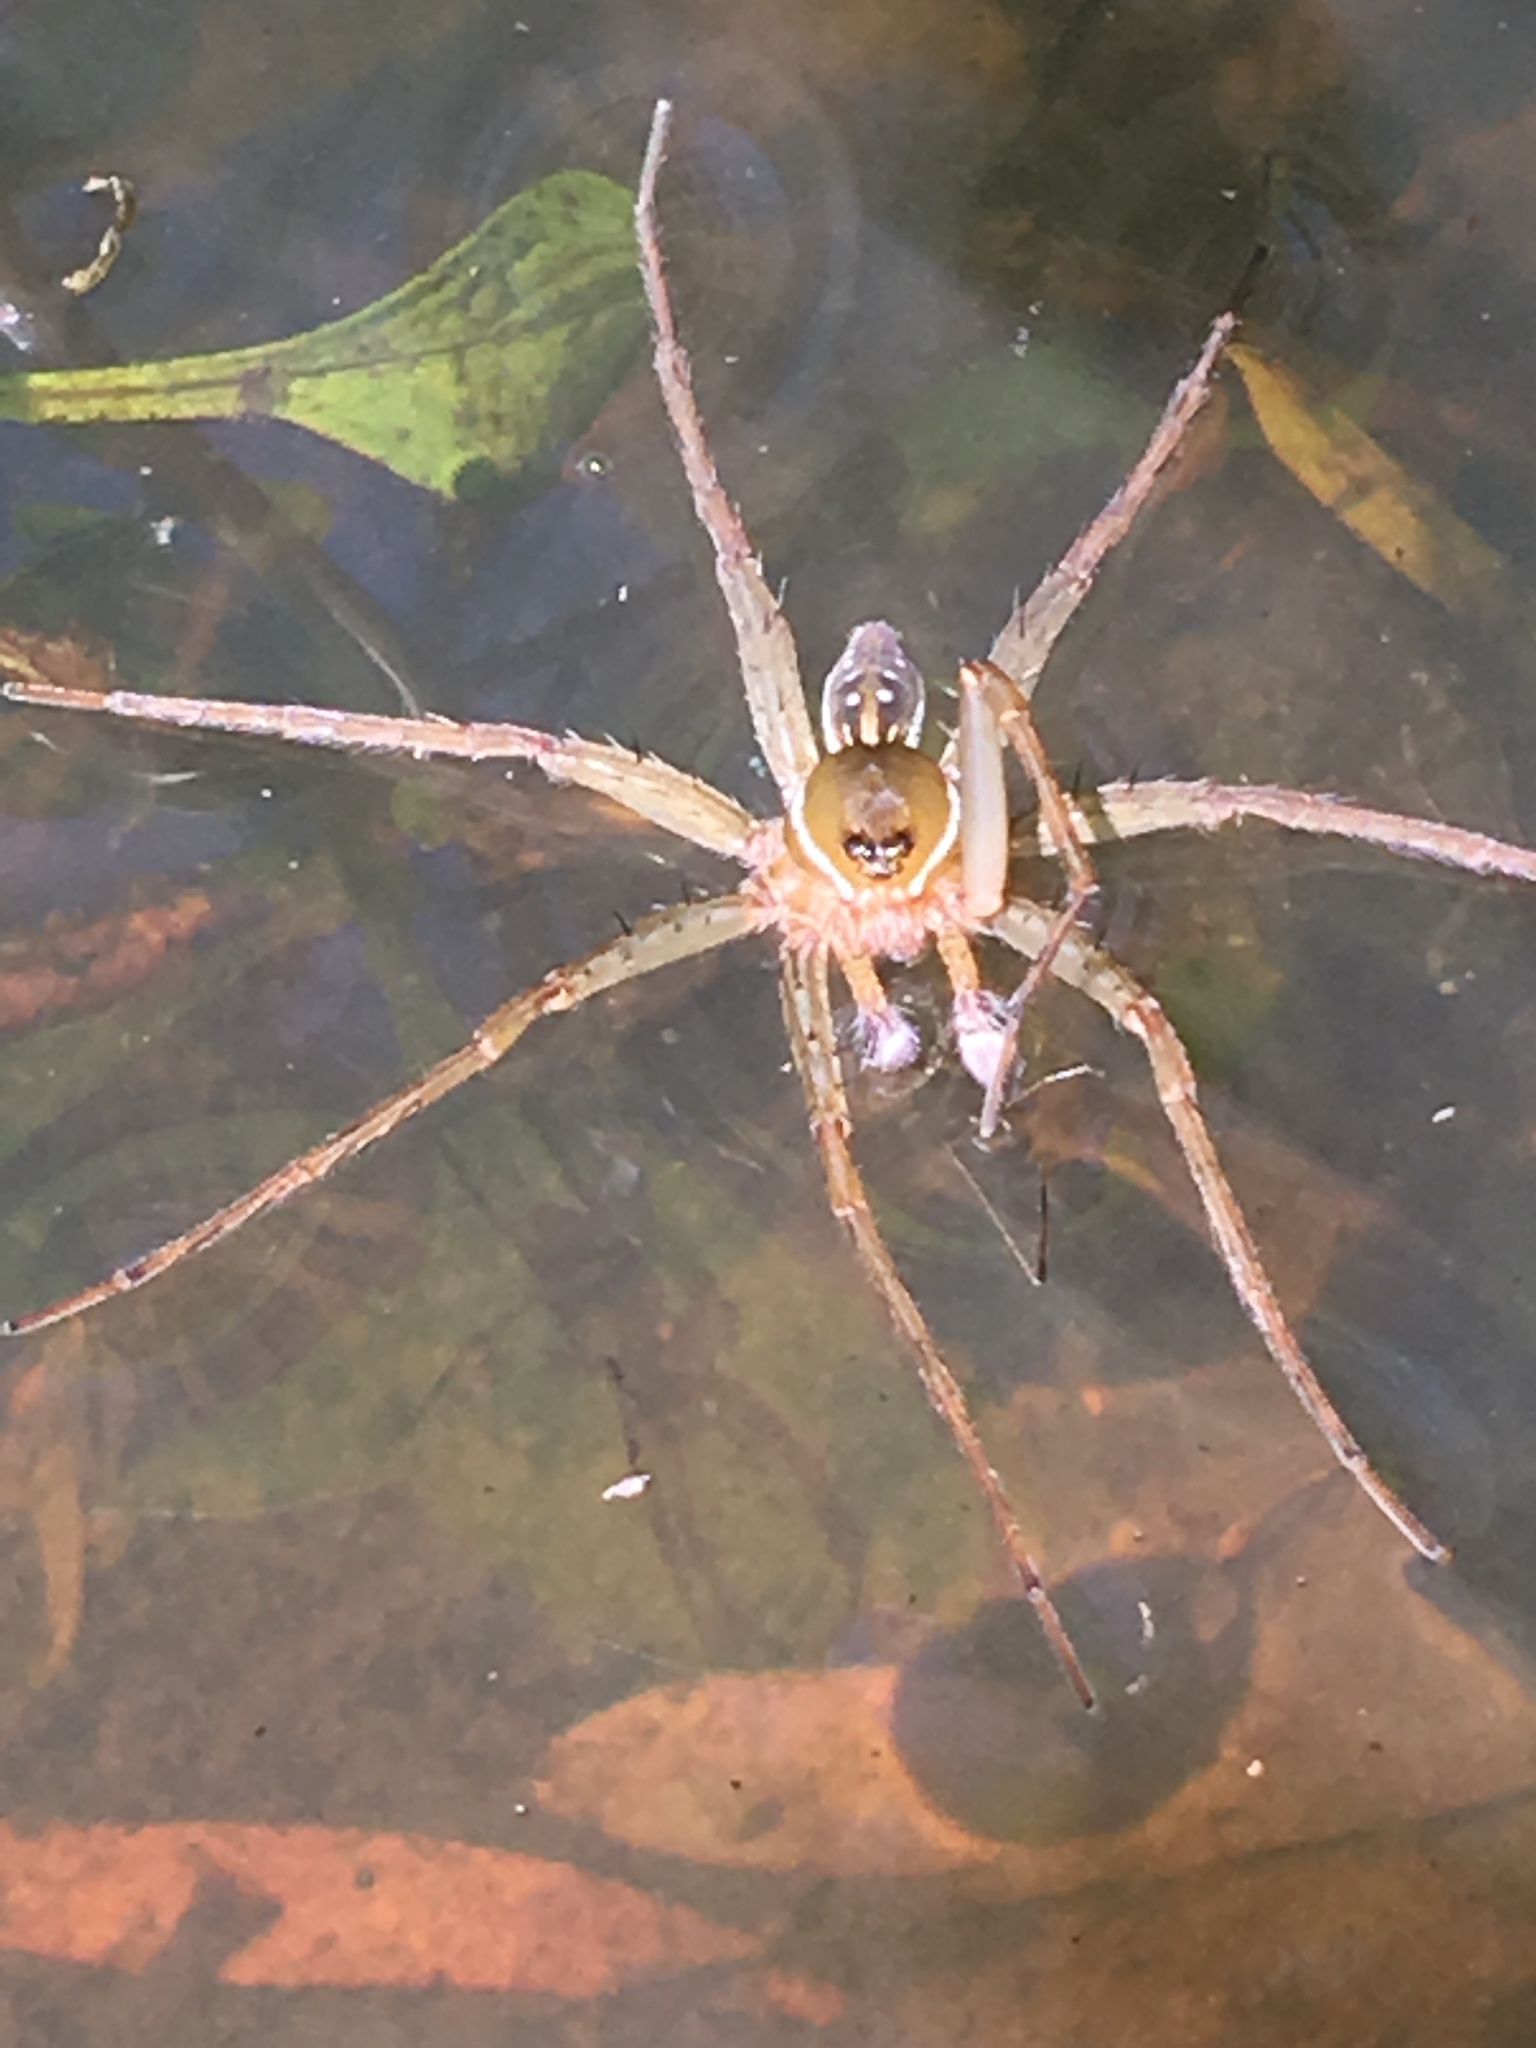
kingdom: Animalia
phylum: Arthropoda
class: Arachnida
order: Araneae
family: Pisauridae
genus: Dolomedes
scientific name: Dolomedes triton
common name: Six-spotted fishing spider
